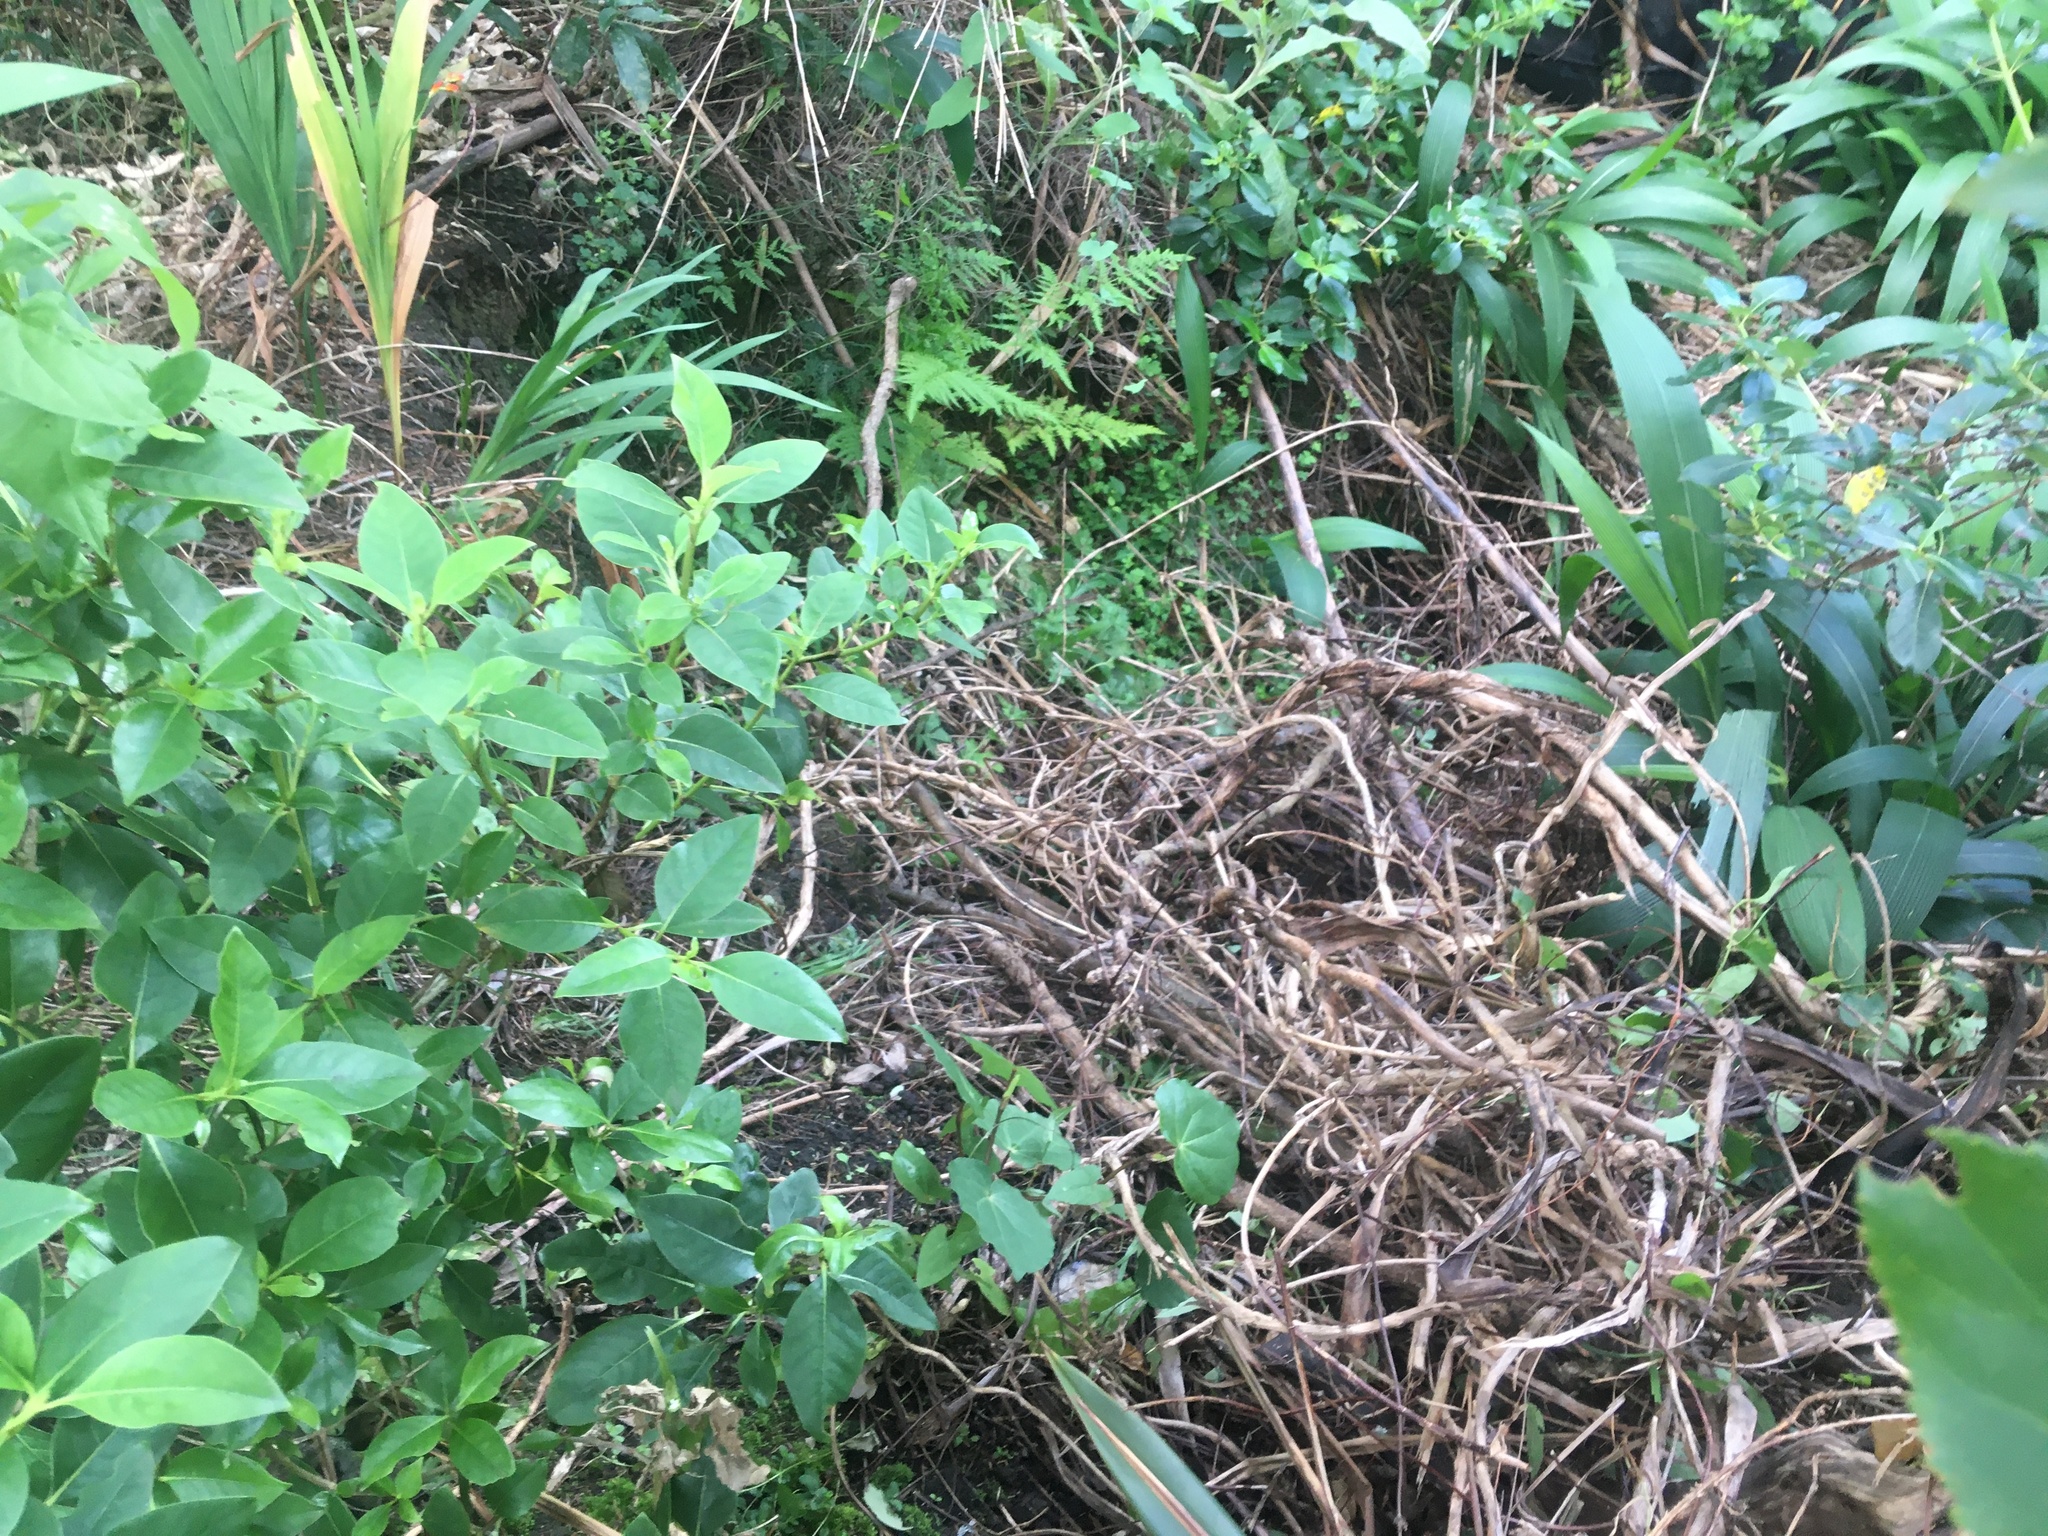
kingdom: Plantae
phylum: Tracheophyta
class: Magnoliopsida
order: Piperales
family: Piperaceae
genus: Macropiper
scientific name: Macropiper excelsum
